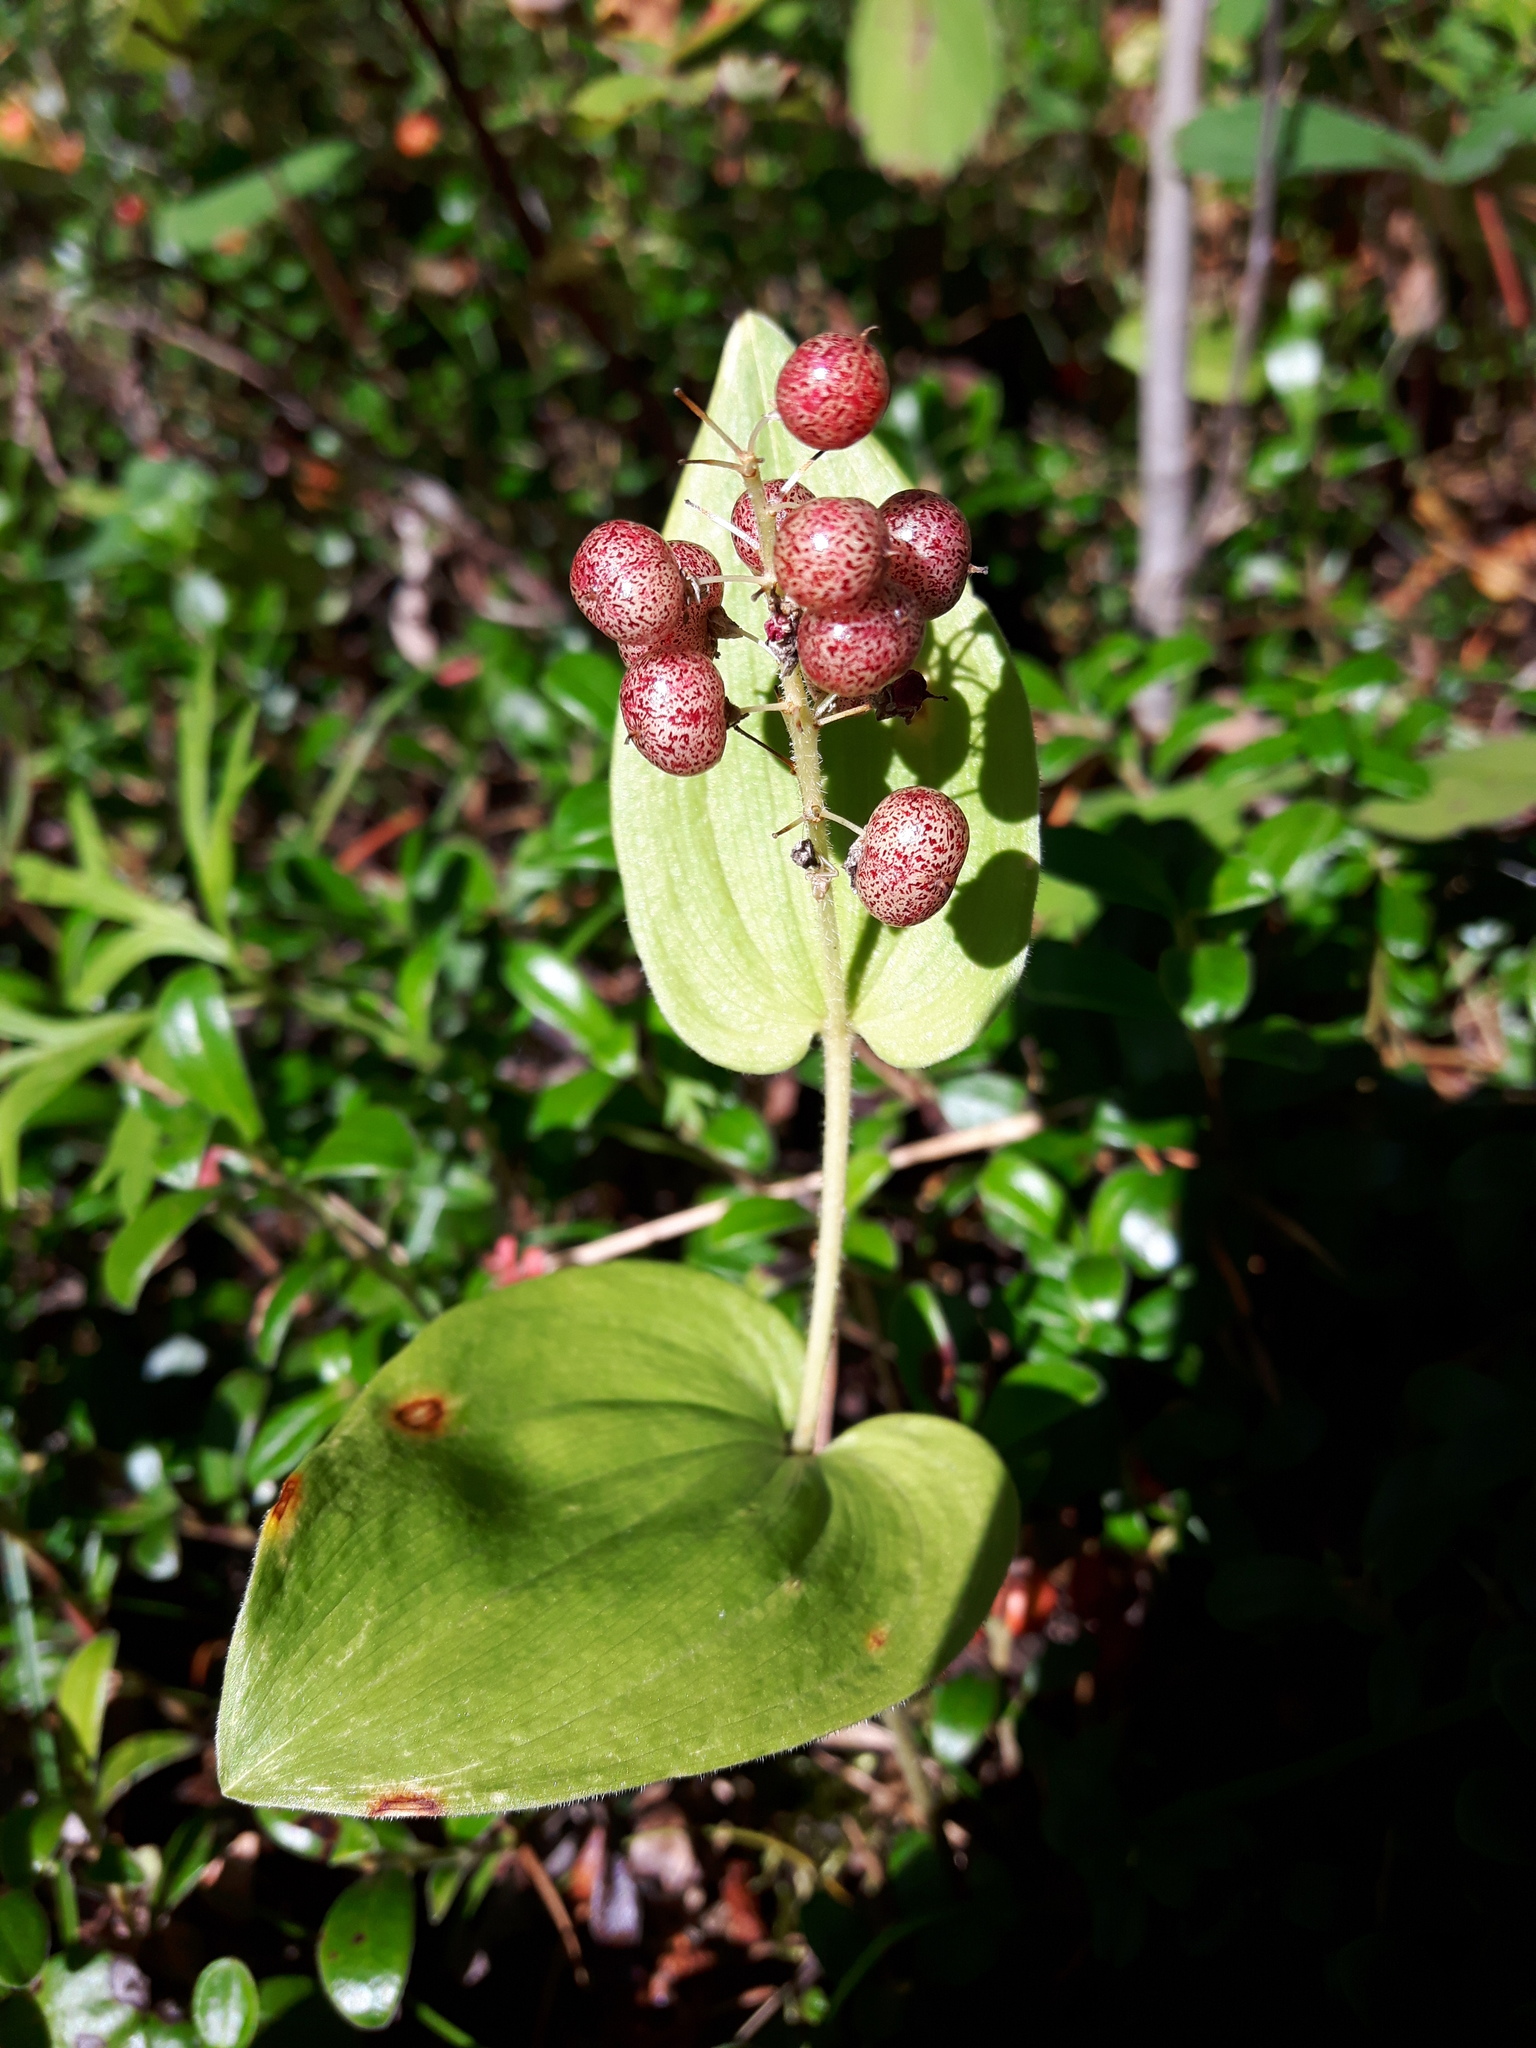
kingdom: Plantae
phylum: Tracheophyta
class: Liliopsida
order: Asparagales
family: Asparagaceae
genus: Maianthemum
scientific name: Maianthemum canadense
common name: False lily-of-the-valley
